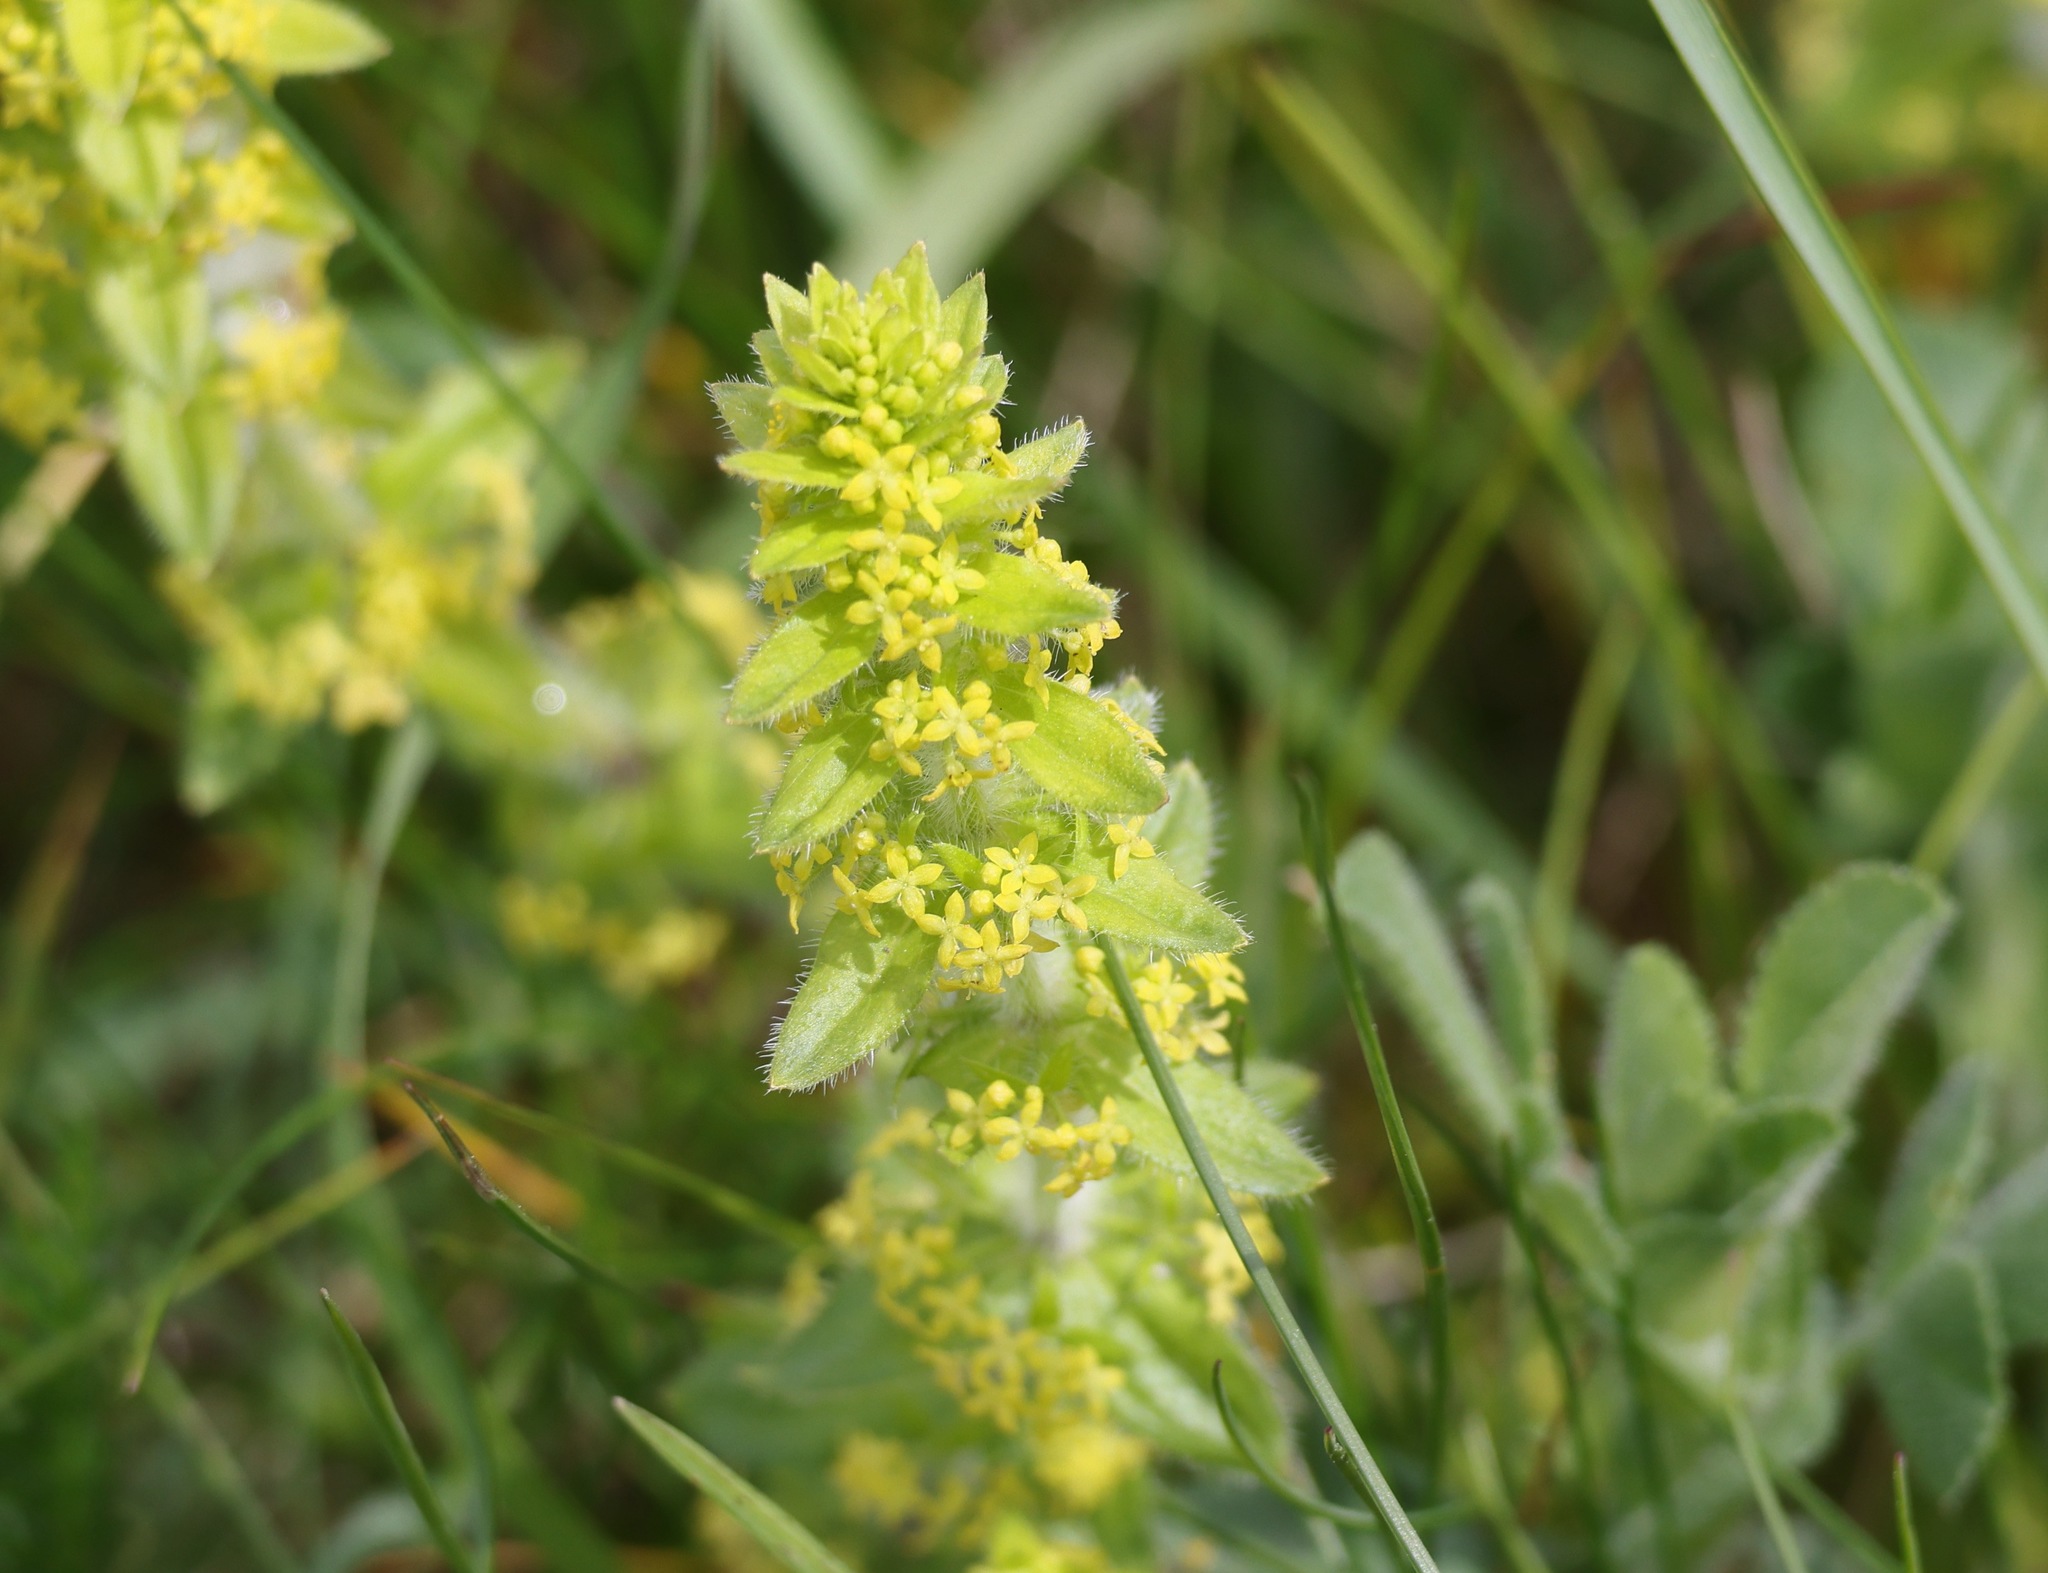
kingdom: Plantae
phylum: Tracheophyta
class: Magnoliopsida
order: Gentianales
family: Rubiaceae
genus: Cruciata
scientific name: Cruciata laevipes
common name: Crosswort
